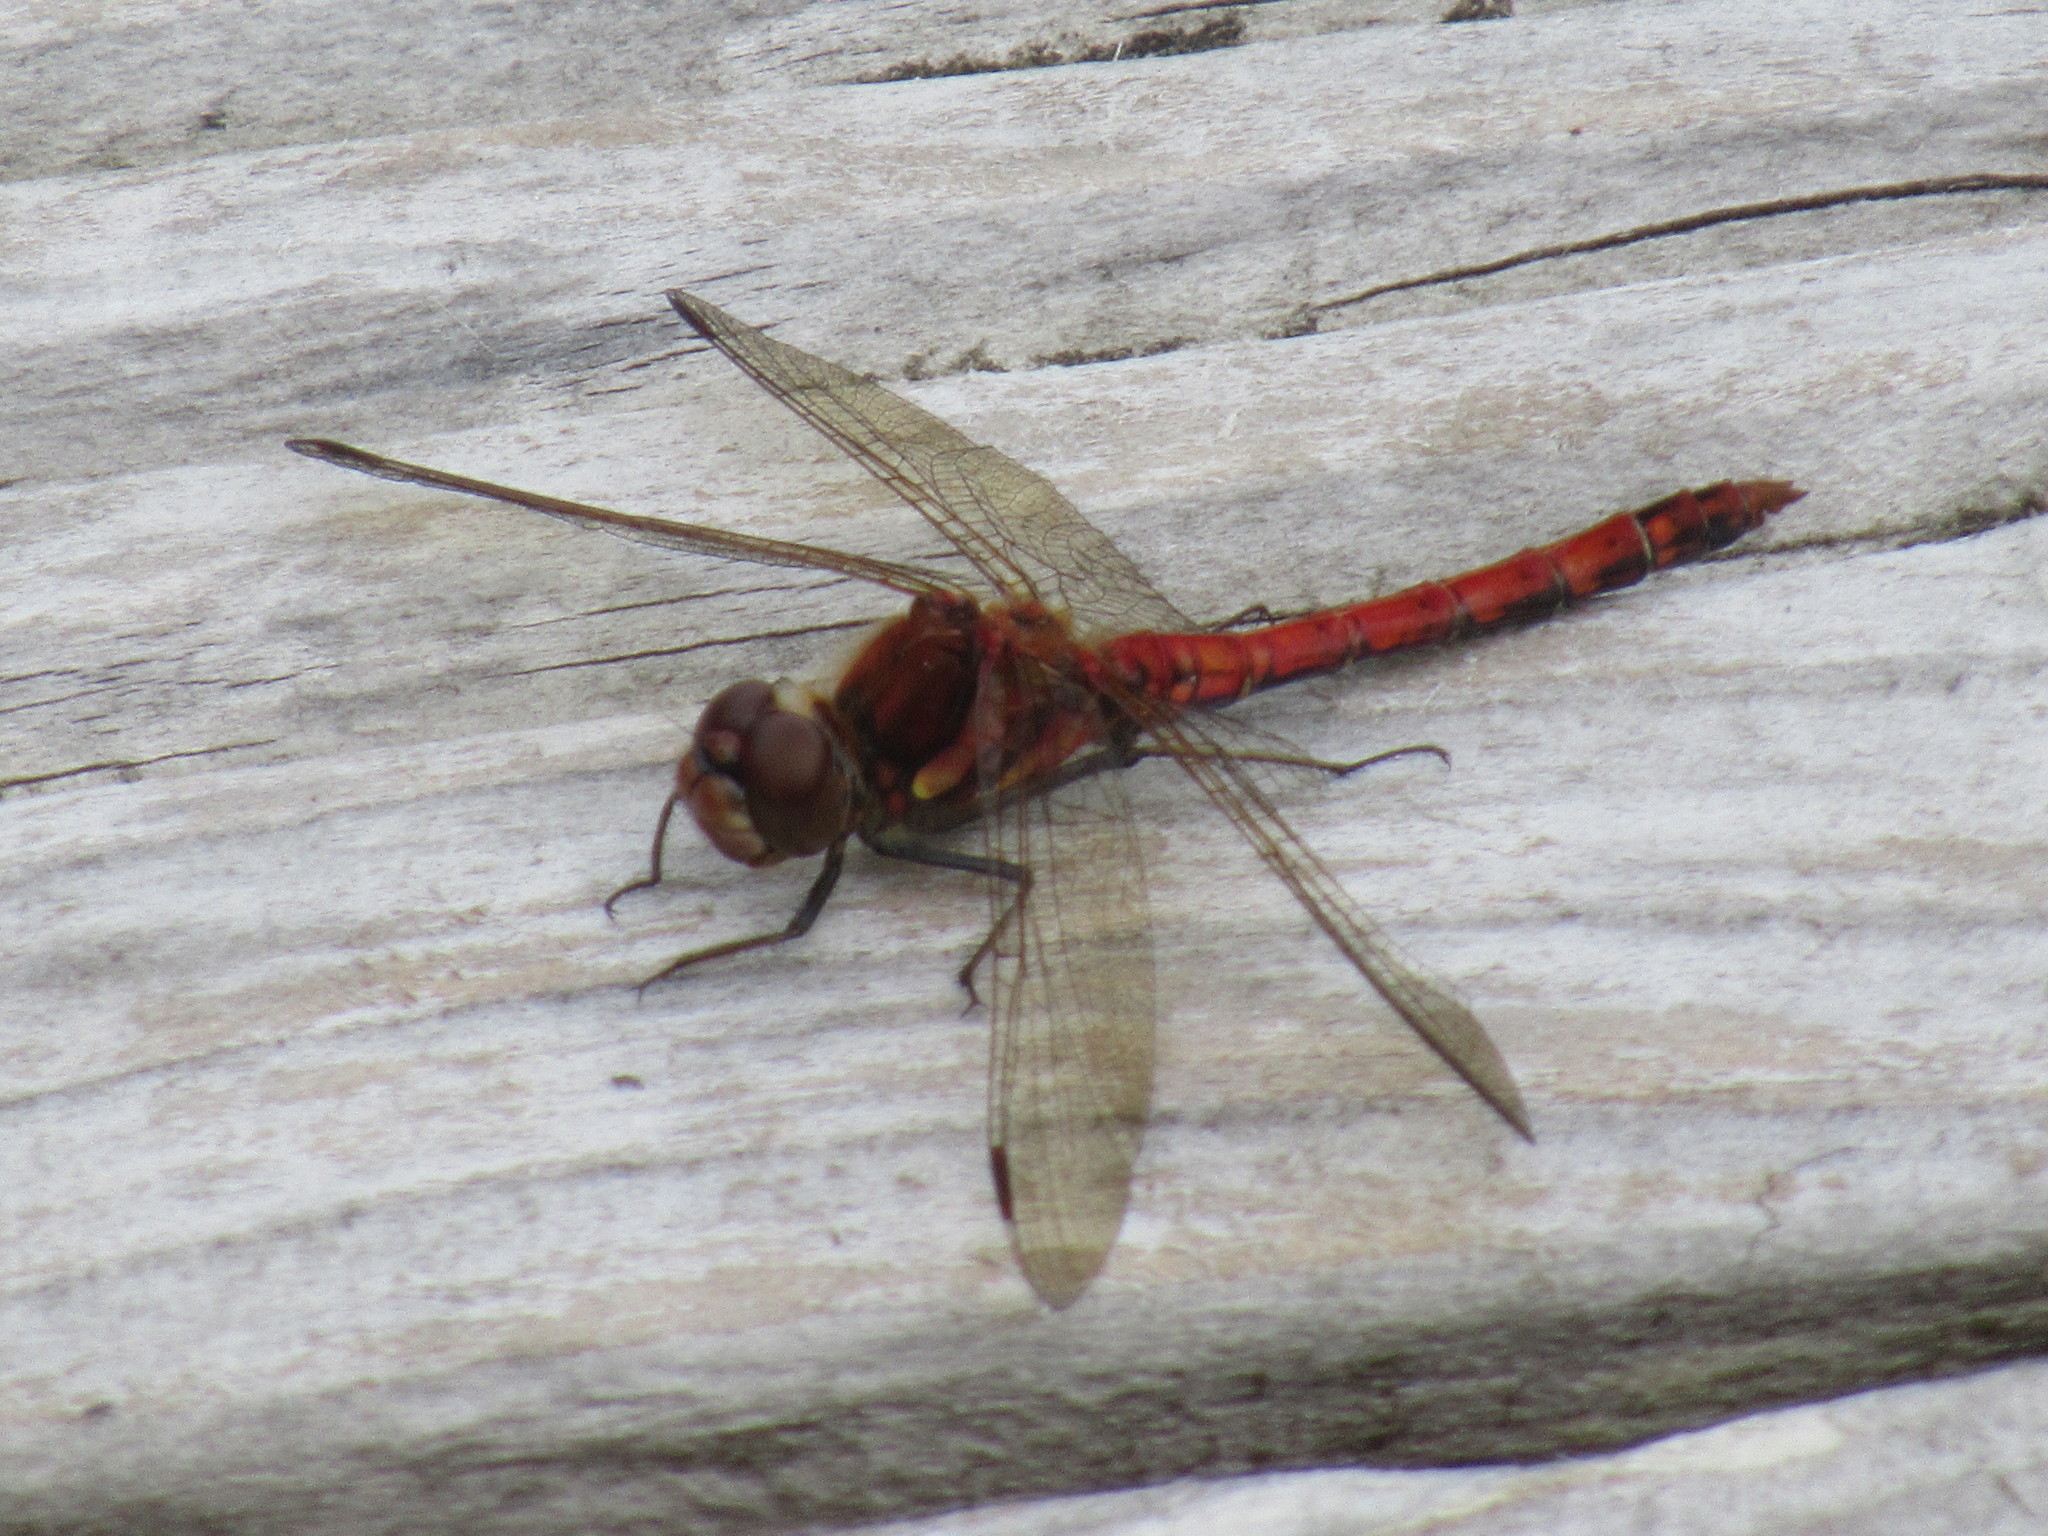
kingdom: Animalia
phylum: Arthropoda
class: Insecta
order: Odonata
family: Libellulidae
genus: Sympetrum
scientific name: Sympetrum striolatum
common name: Common darter
